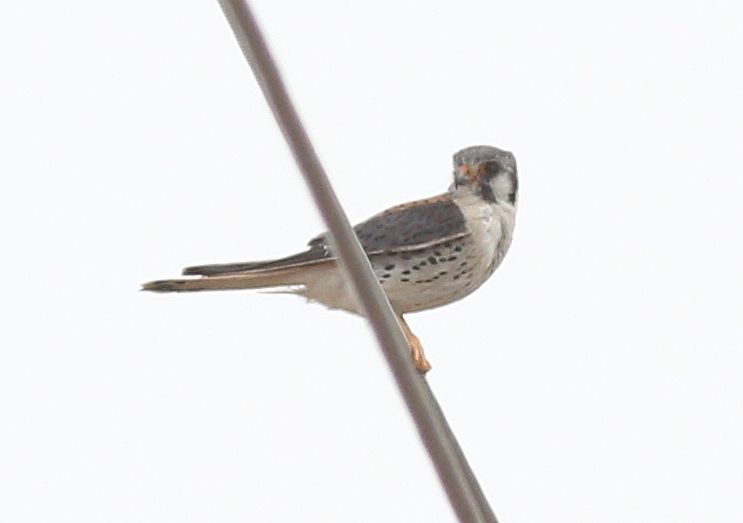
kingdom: Animalia
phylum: Chordata
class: Aves
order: Falconiformes
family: Falconidae
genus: Falco
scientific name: Falco sparverius
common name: American kestrel
